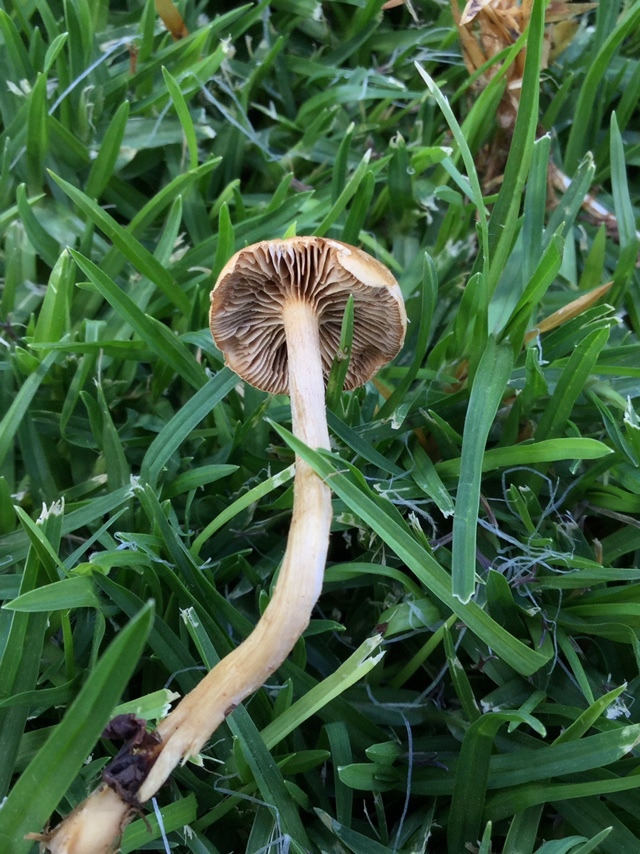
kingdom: Fungi
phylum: Basidiomycota
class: Agaricomycetes
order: Agaricales
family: Strophariaceae
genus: Agrocybe
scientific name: Agrocybe pediades
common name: Common fieldcap
